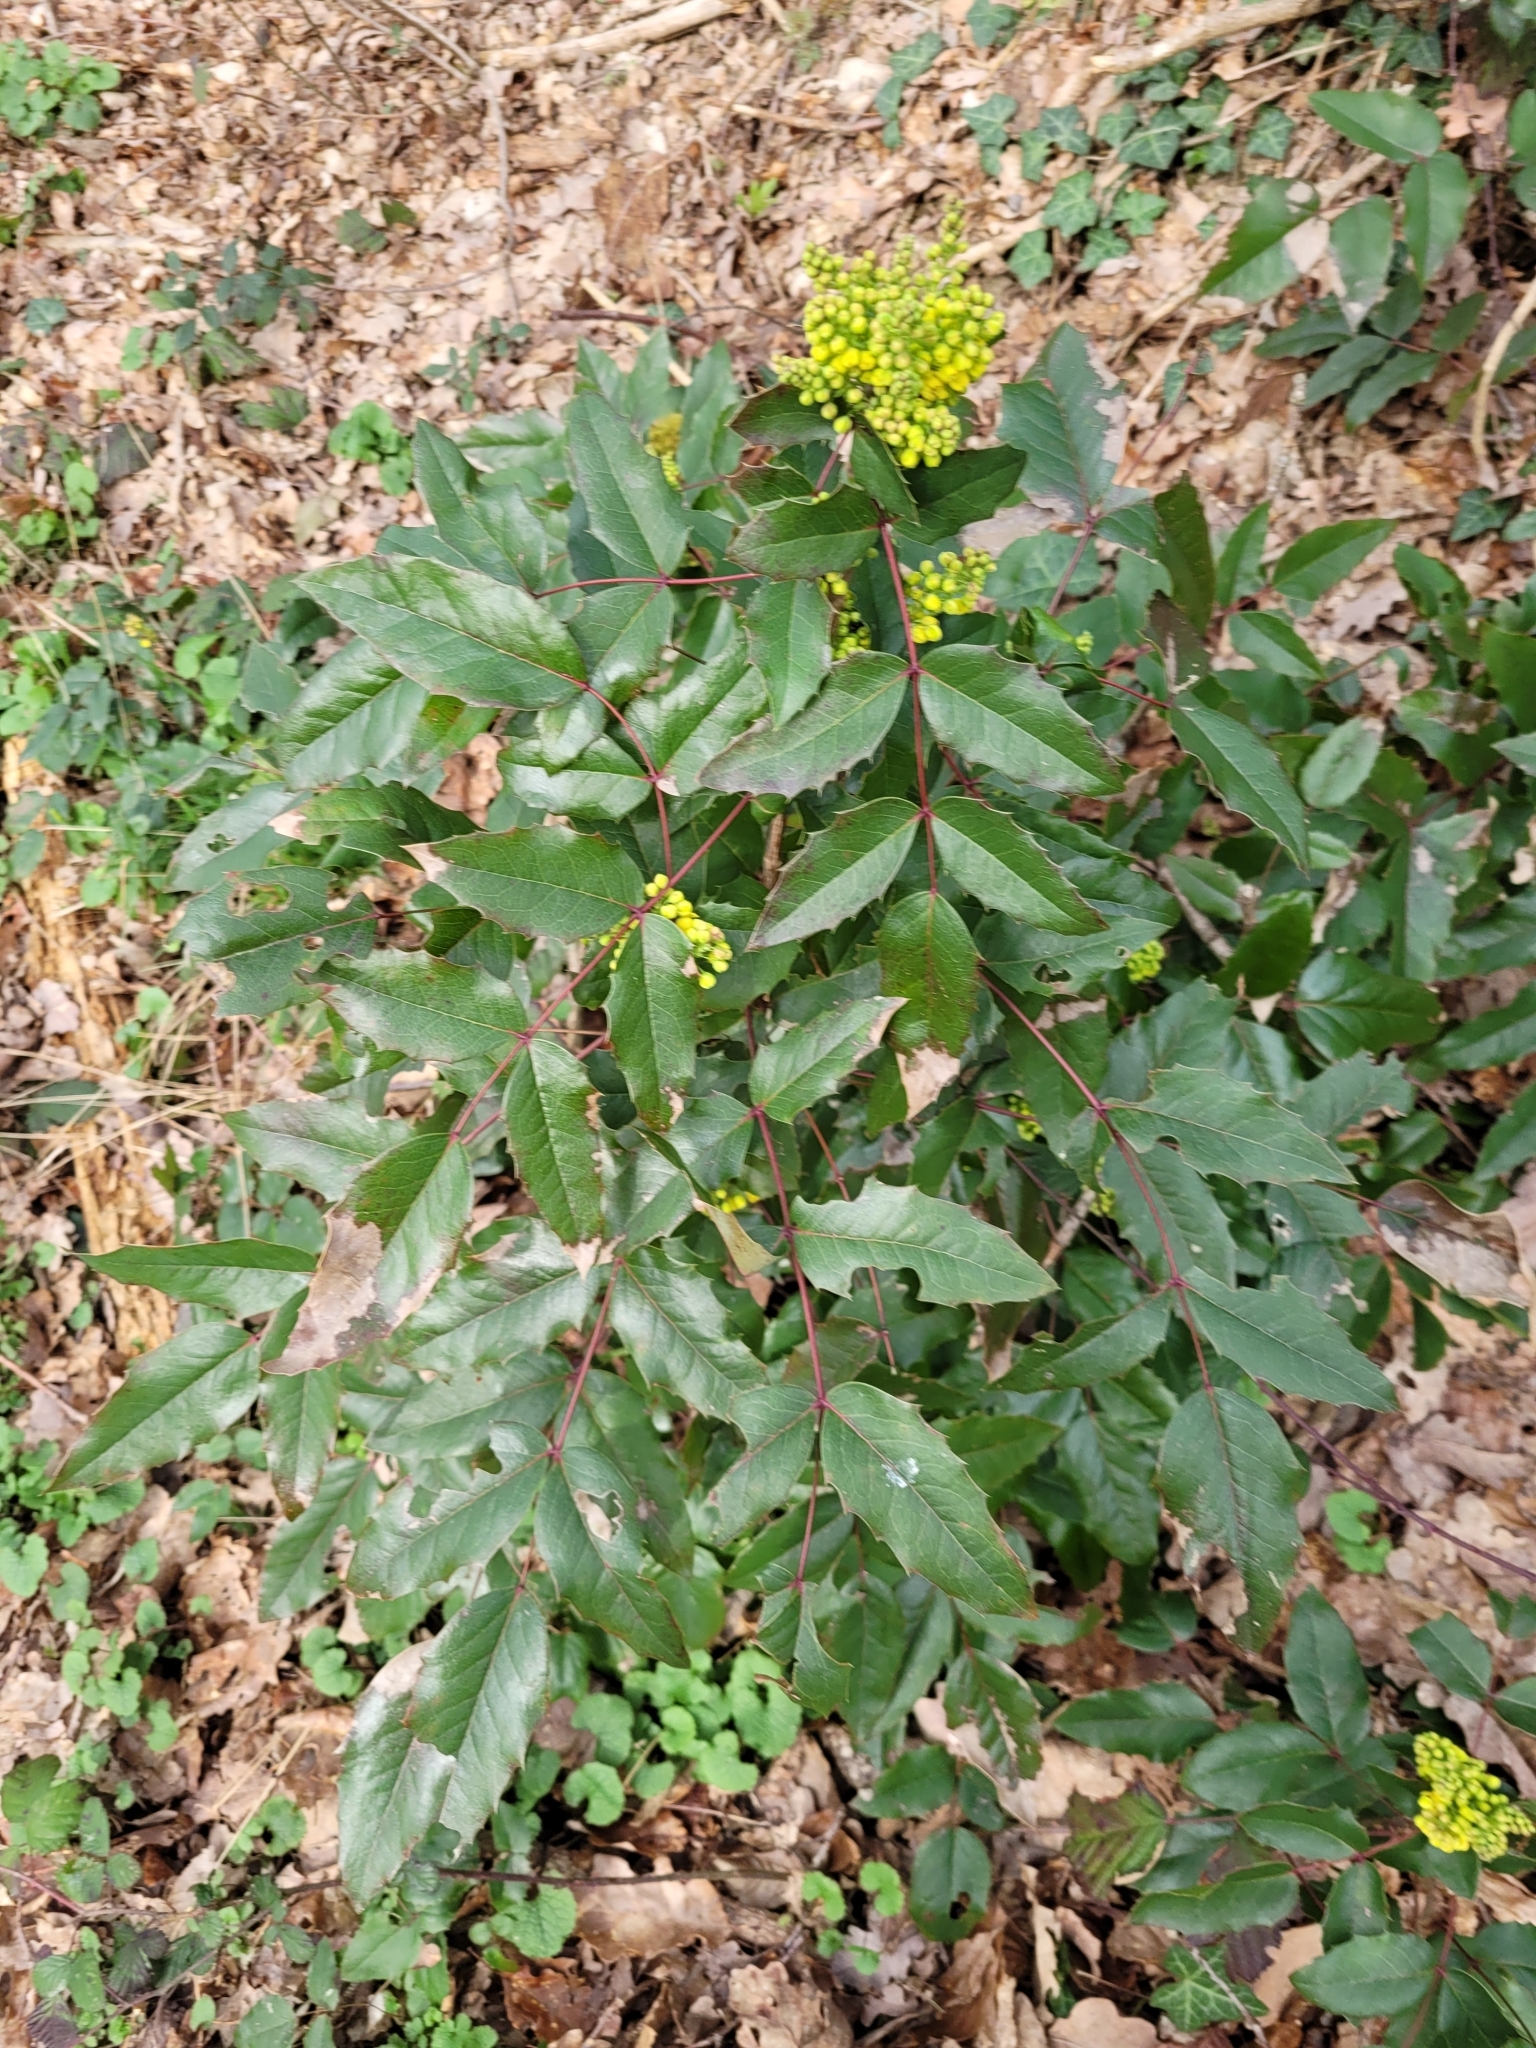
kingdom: Plantae
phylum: Tracheophyta
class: Magnoliopsida
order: Ranunculales
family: Berberidaceae
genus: Mahonia
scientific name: Mahonia aquifolium
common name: Oregon-grape
